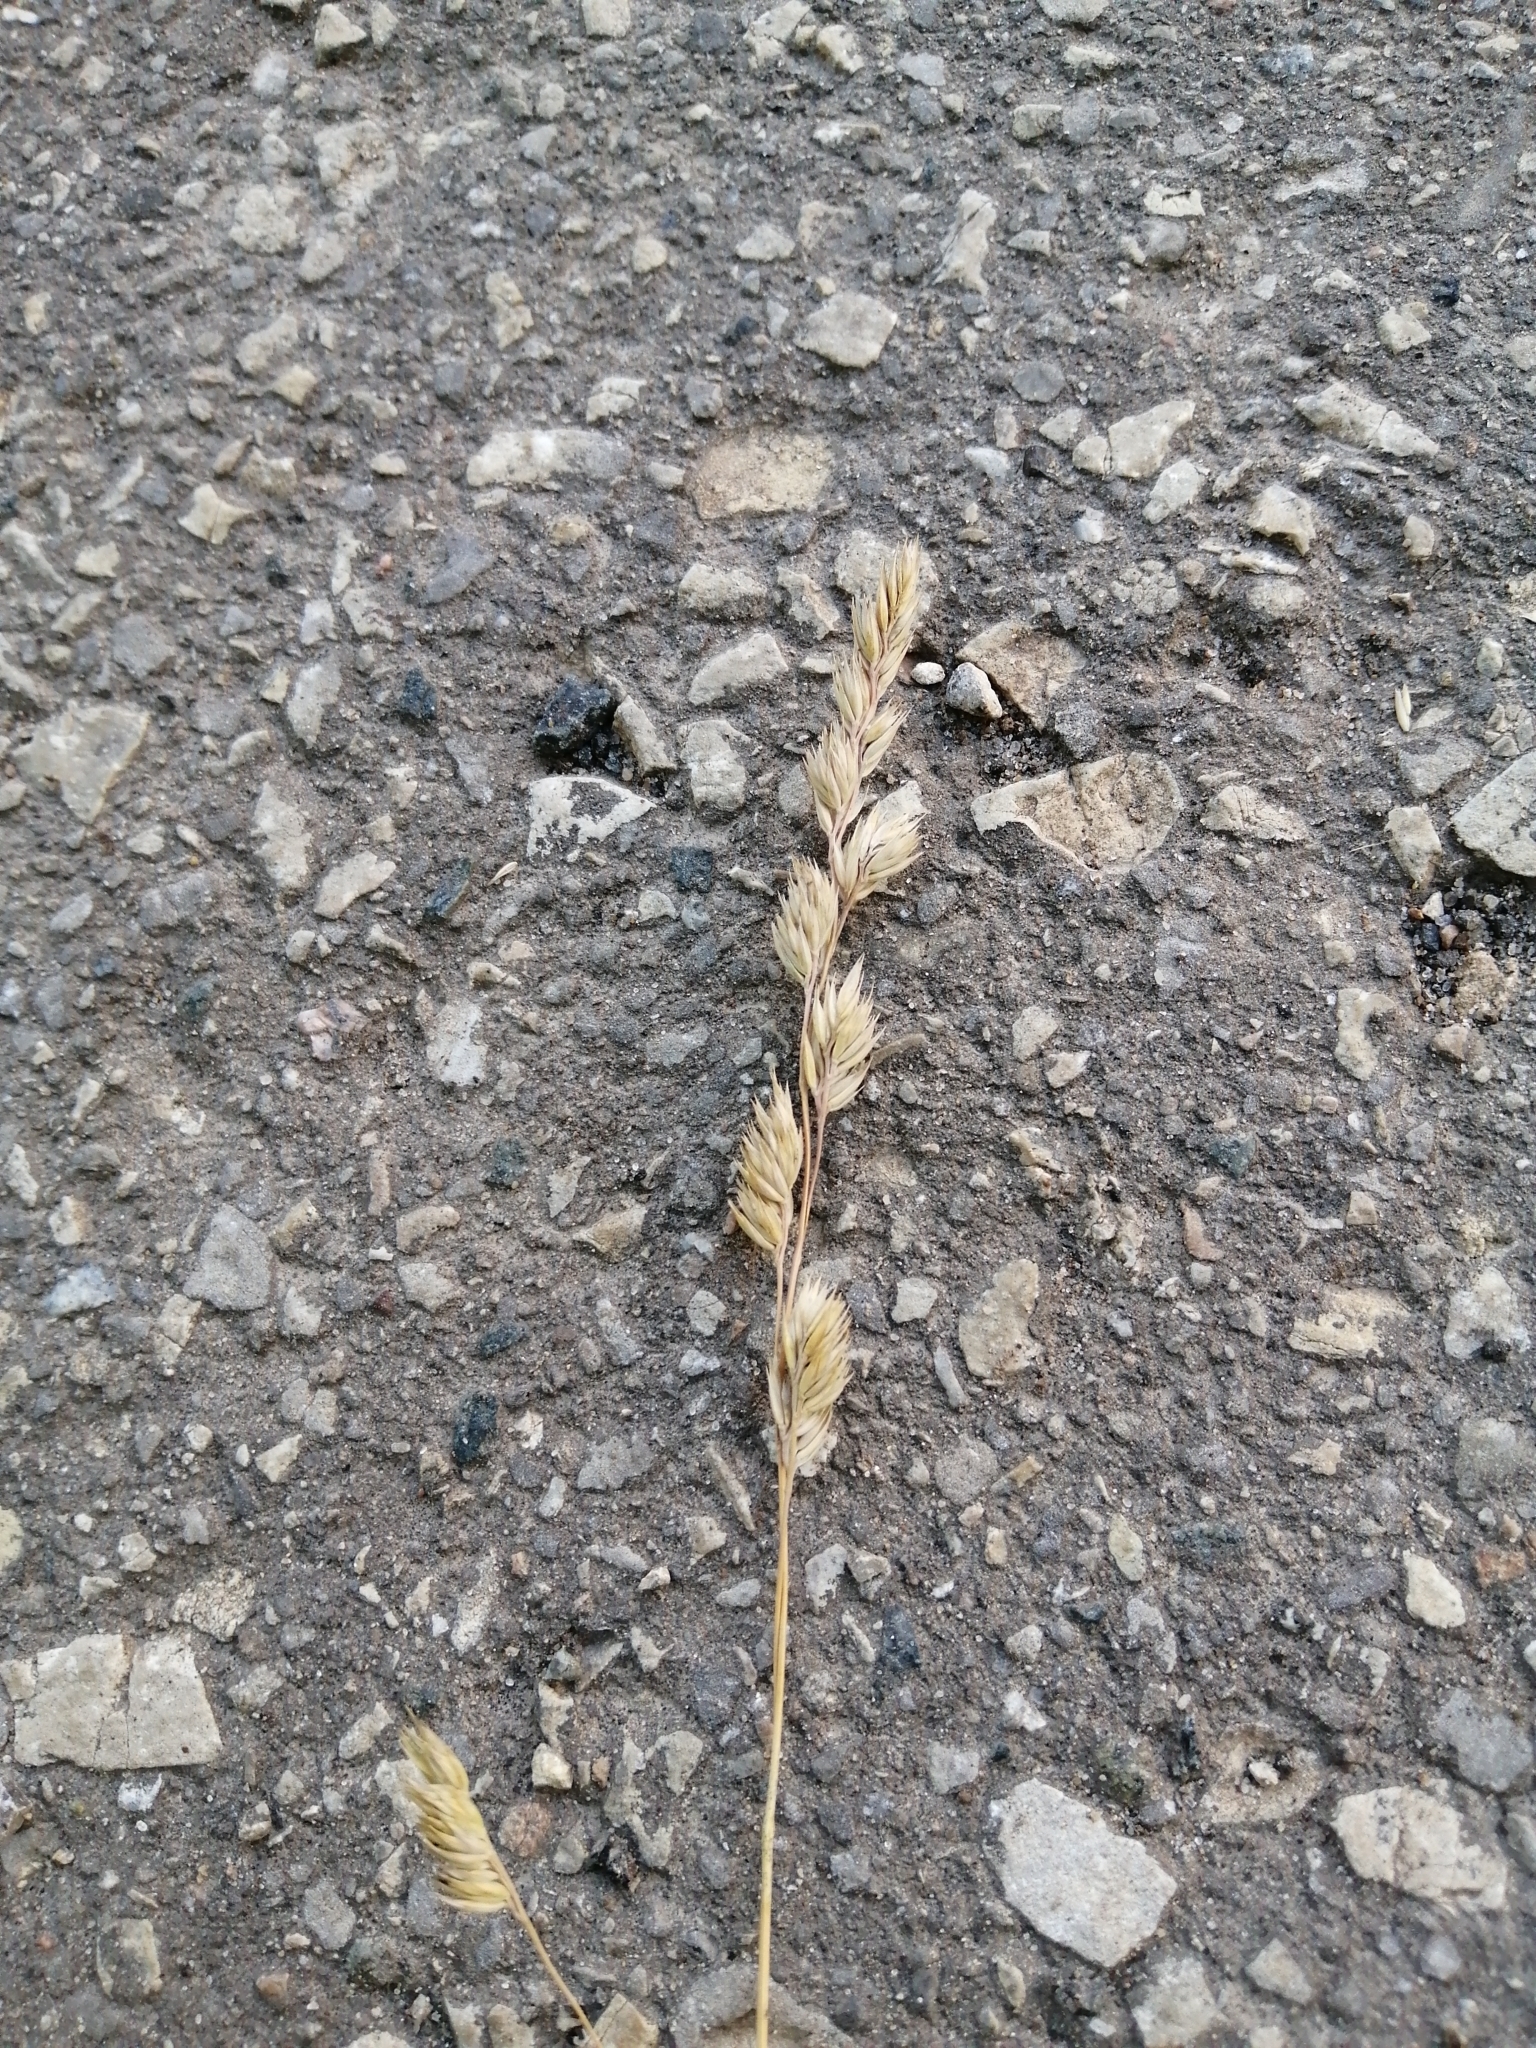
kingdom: Plantae
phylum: Tracheophyta
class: Liliopsida
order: Poales
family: Poaceae
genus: Dactylis
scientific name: Dactylis glomerata
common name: Orchardgrass
